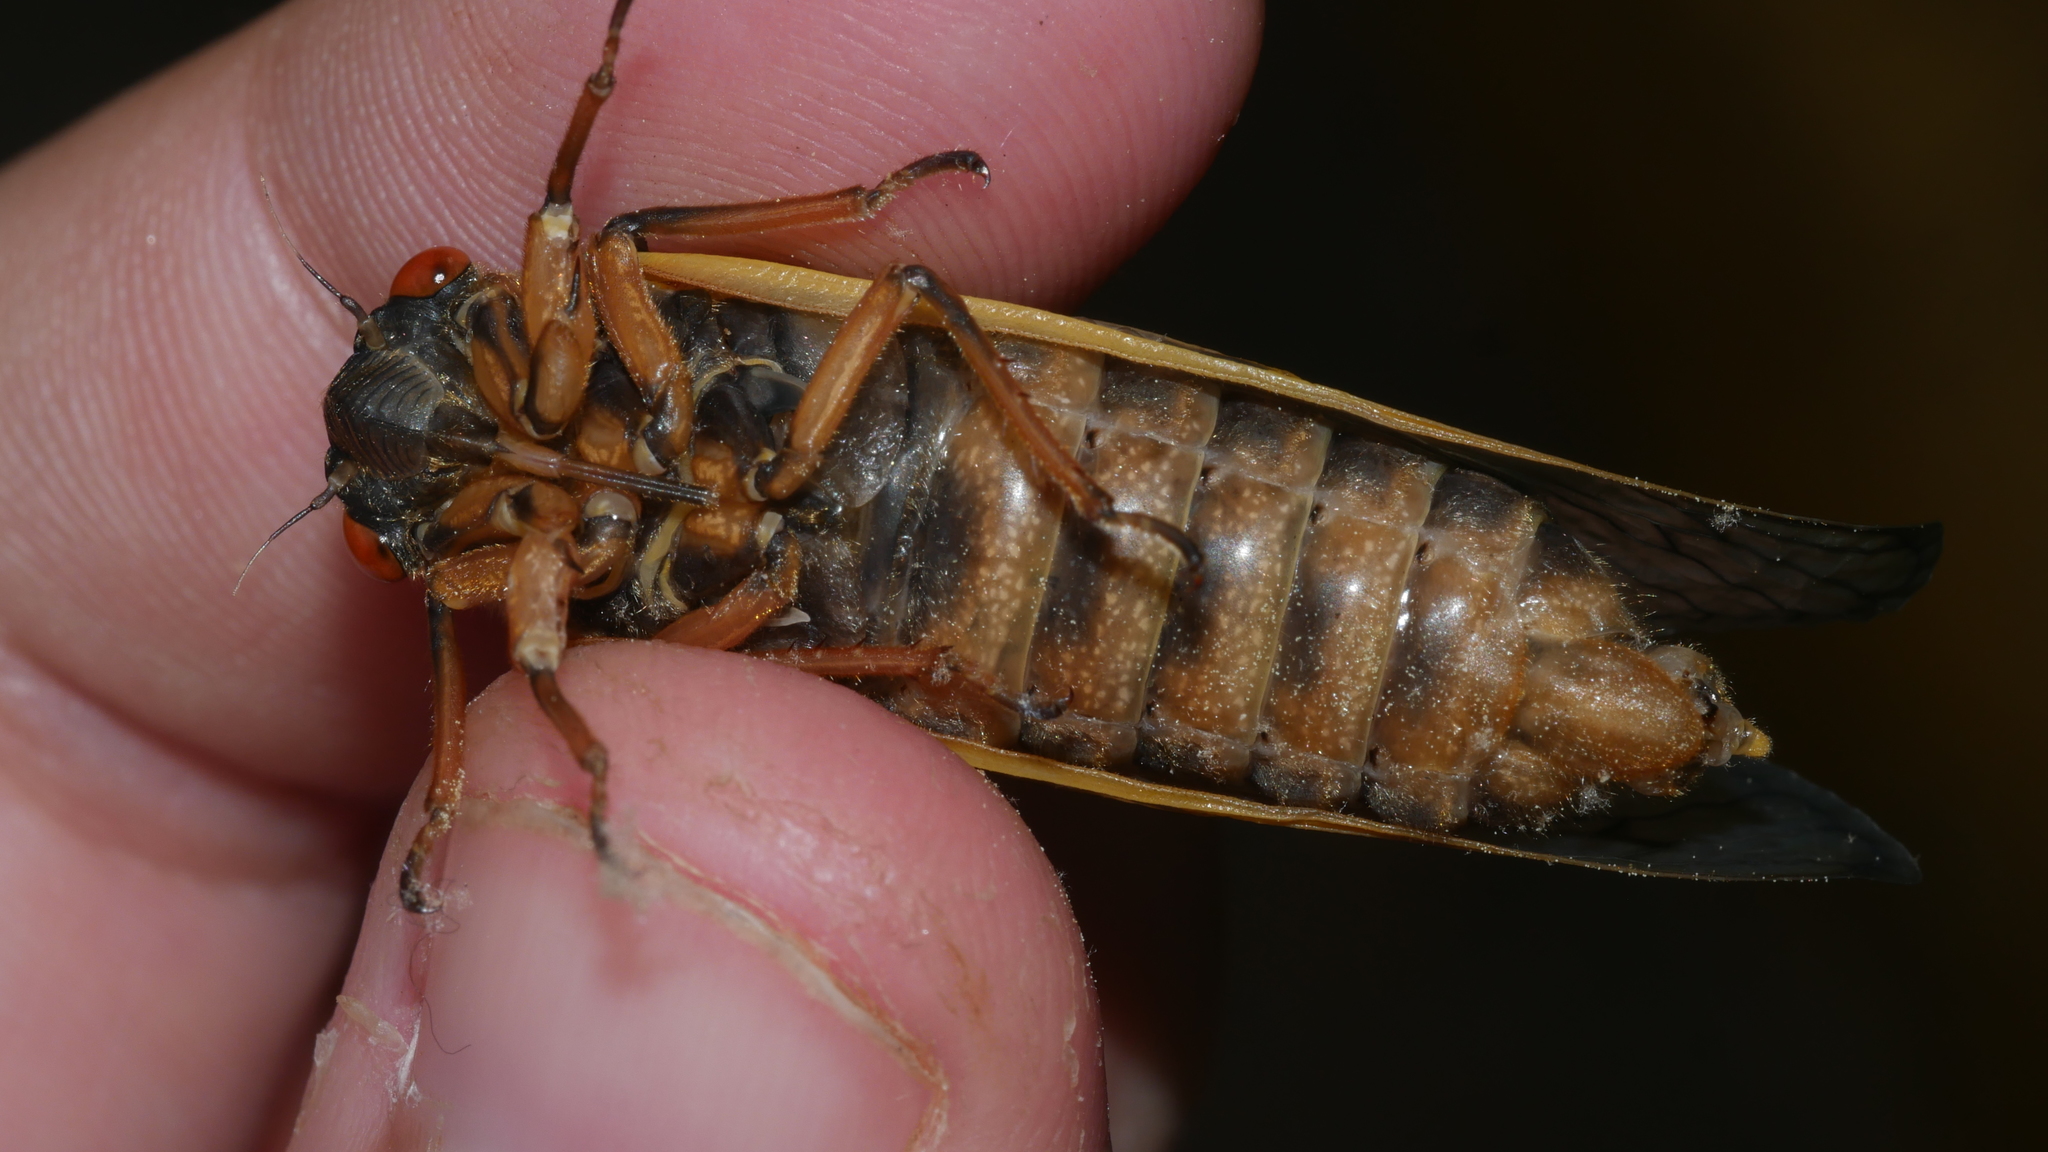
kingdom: Animalia
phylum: Arthropoda
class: Insecta
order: Hemiptera
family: Cicadidae
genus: Magicicada
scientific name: Magicicada septendecim
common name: Periodical cicada
